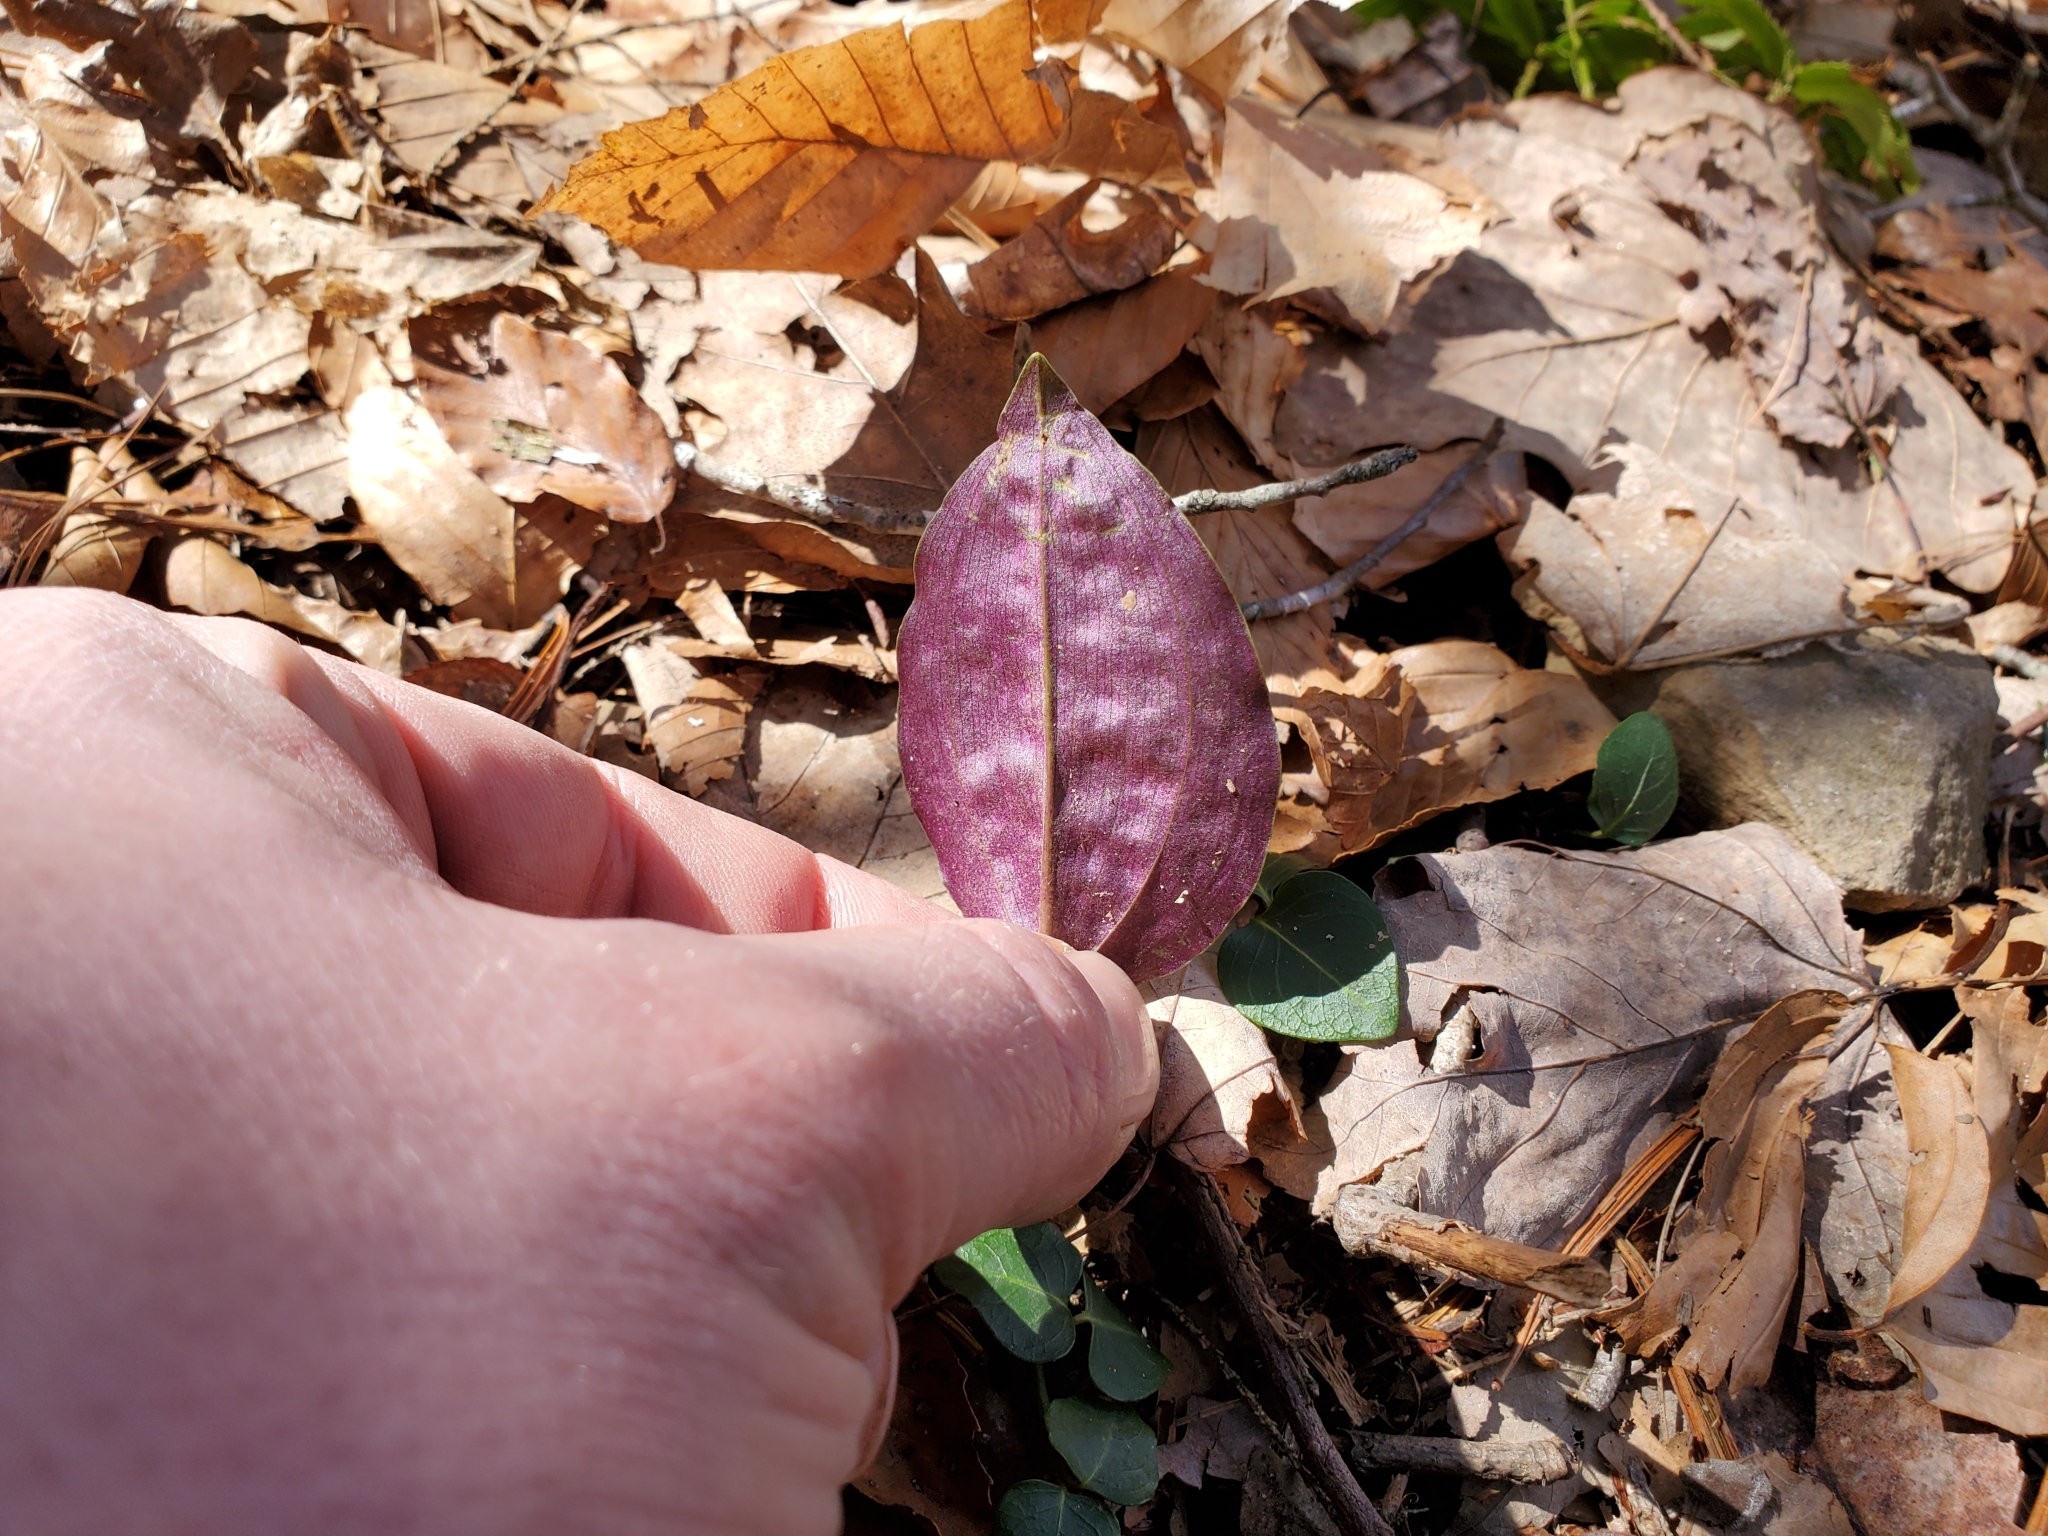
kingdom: Plantae
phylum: Tracheophyta
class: Liliopsida
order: Asparagales
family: Orchidaceae
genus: Tipularia
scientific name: Tipularia discolor
